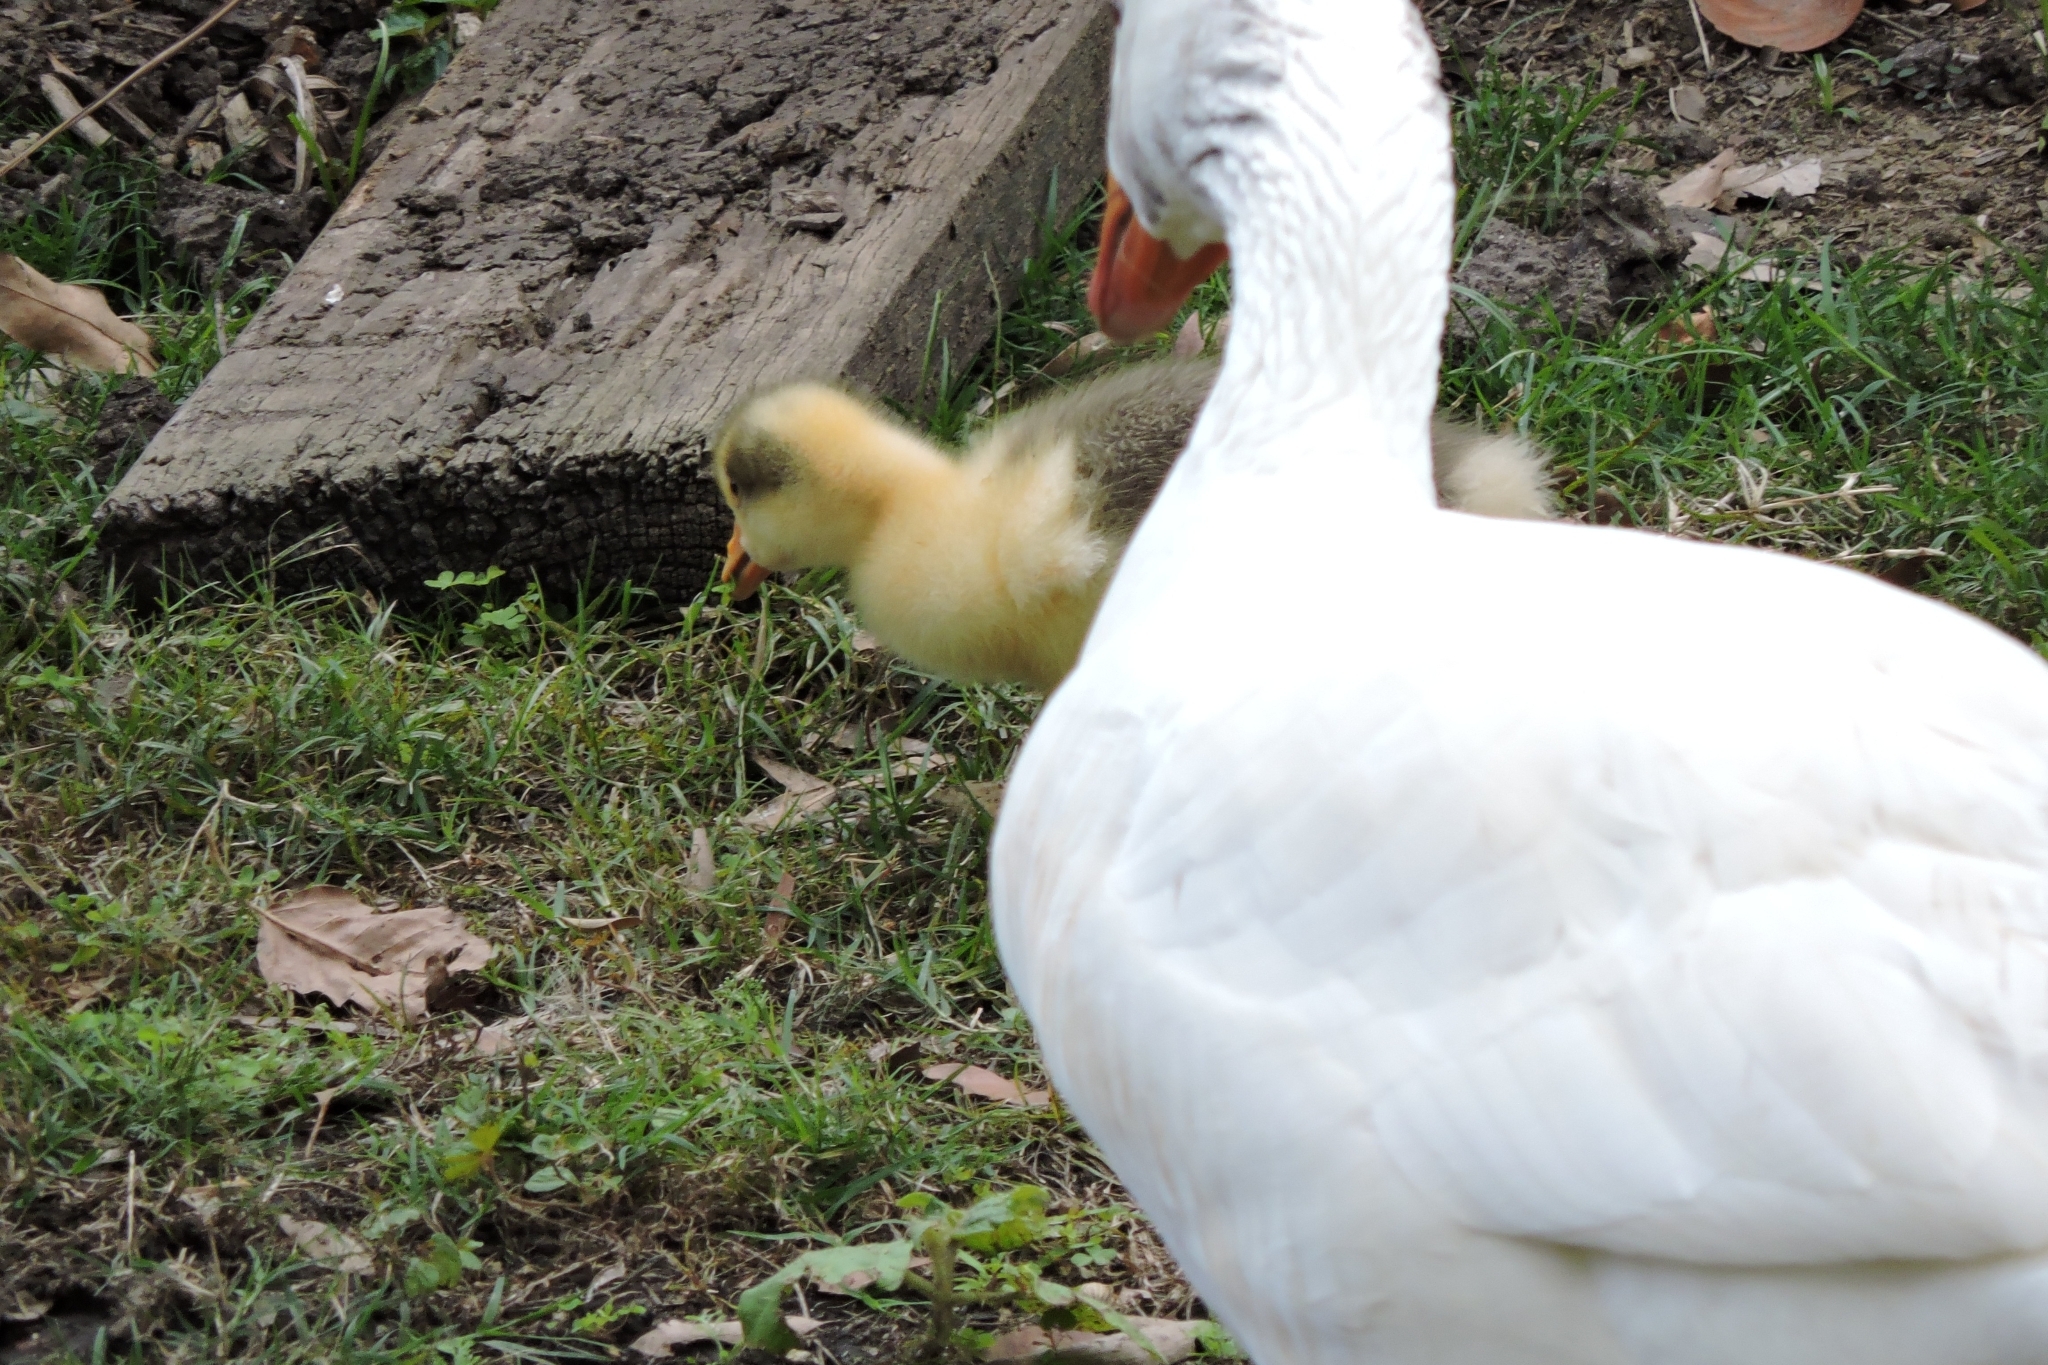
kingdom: Animalia
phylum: Chordata
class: Aves
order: Anseriformes
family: Anatidae
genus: Anser
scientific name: Anser anser
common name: Greylag goose
